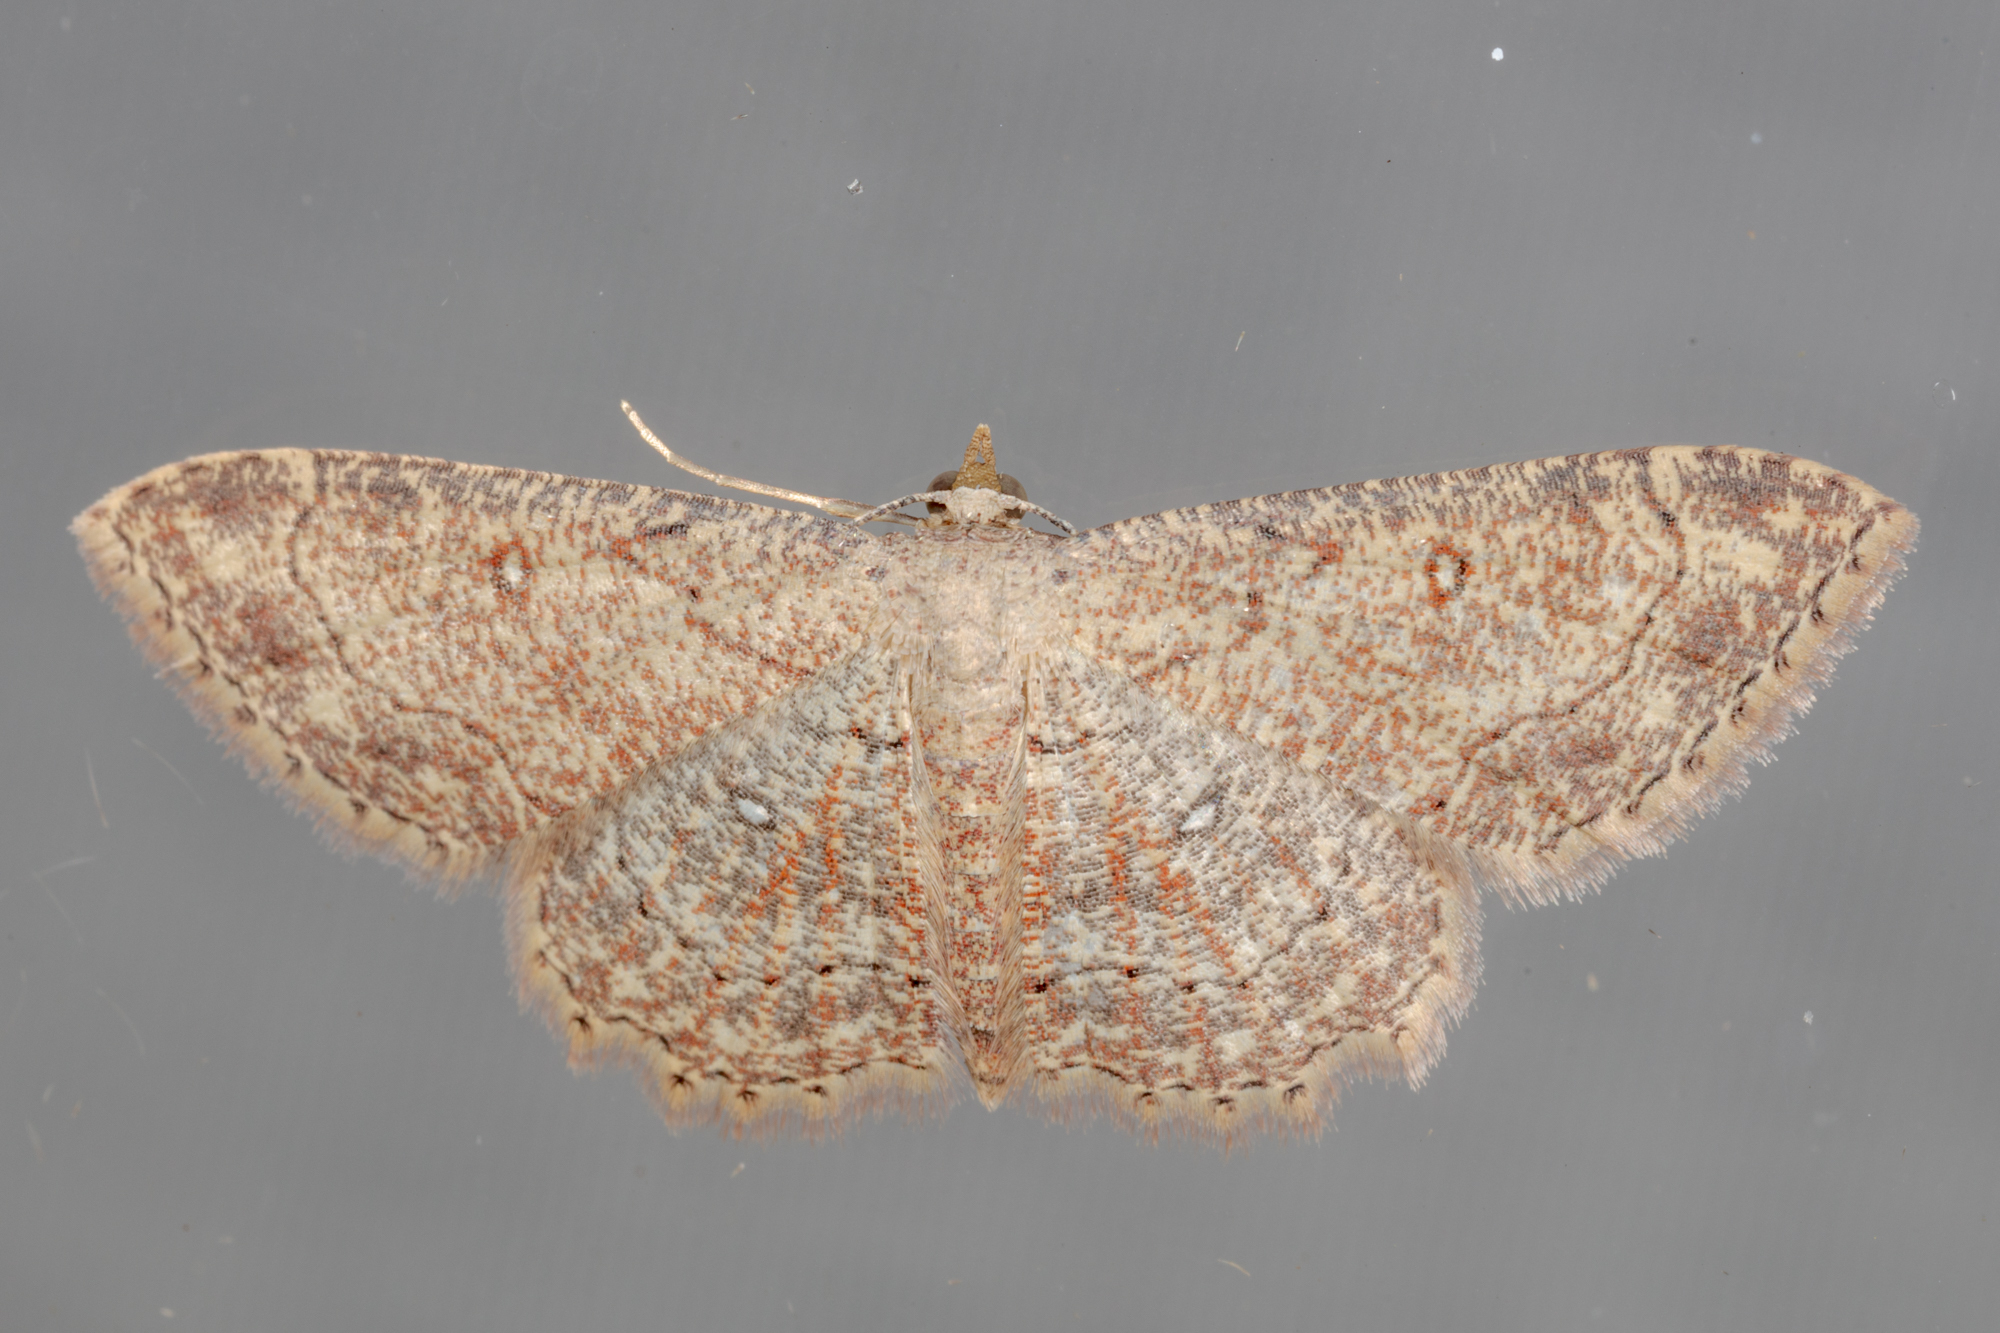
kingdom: Animalia
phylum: Arthropoda
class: Insecta
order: Lepidoptera
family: Geometridae
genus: Cyclophora
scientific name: Cyclophora nanaria
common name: Cankerworm
